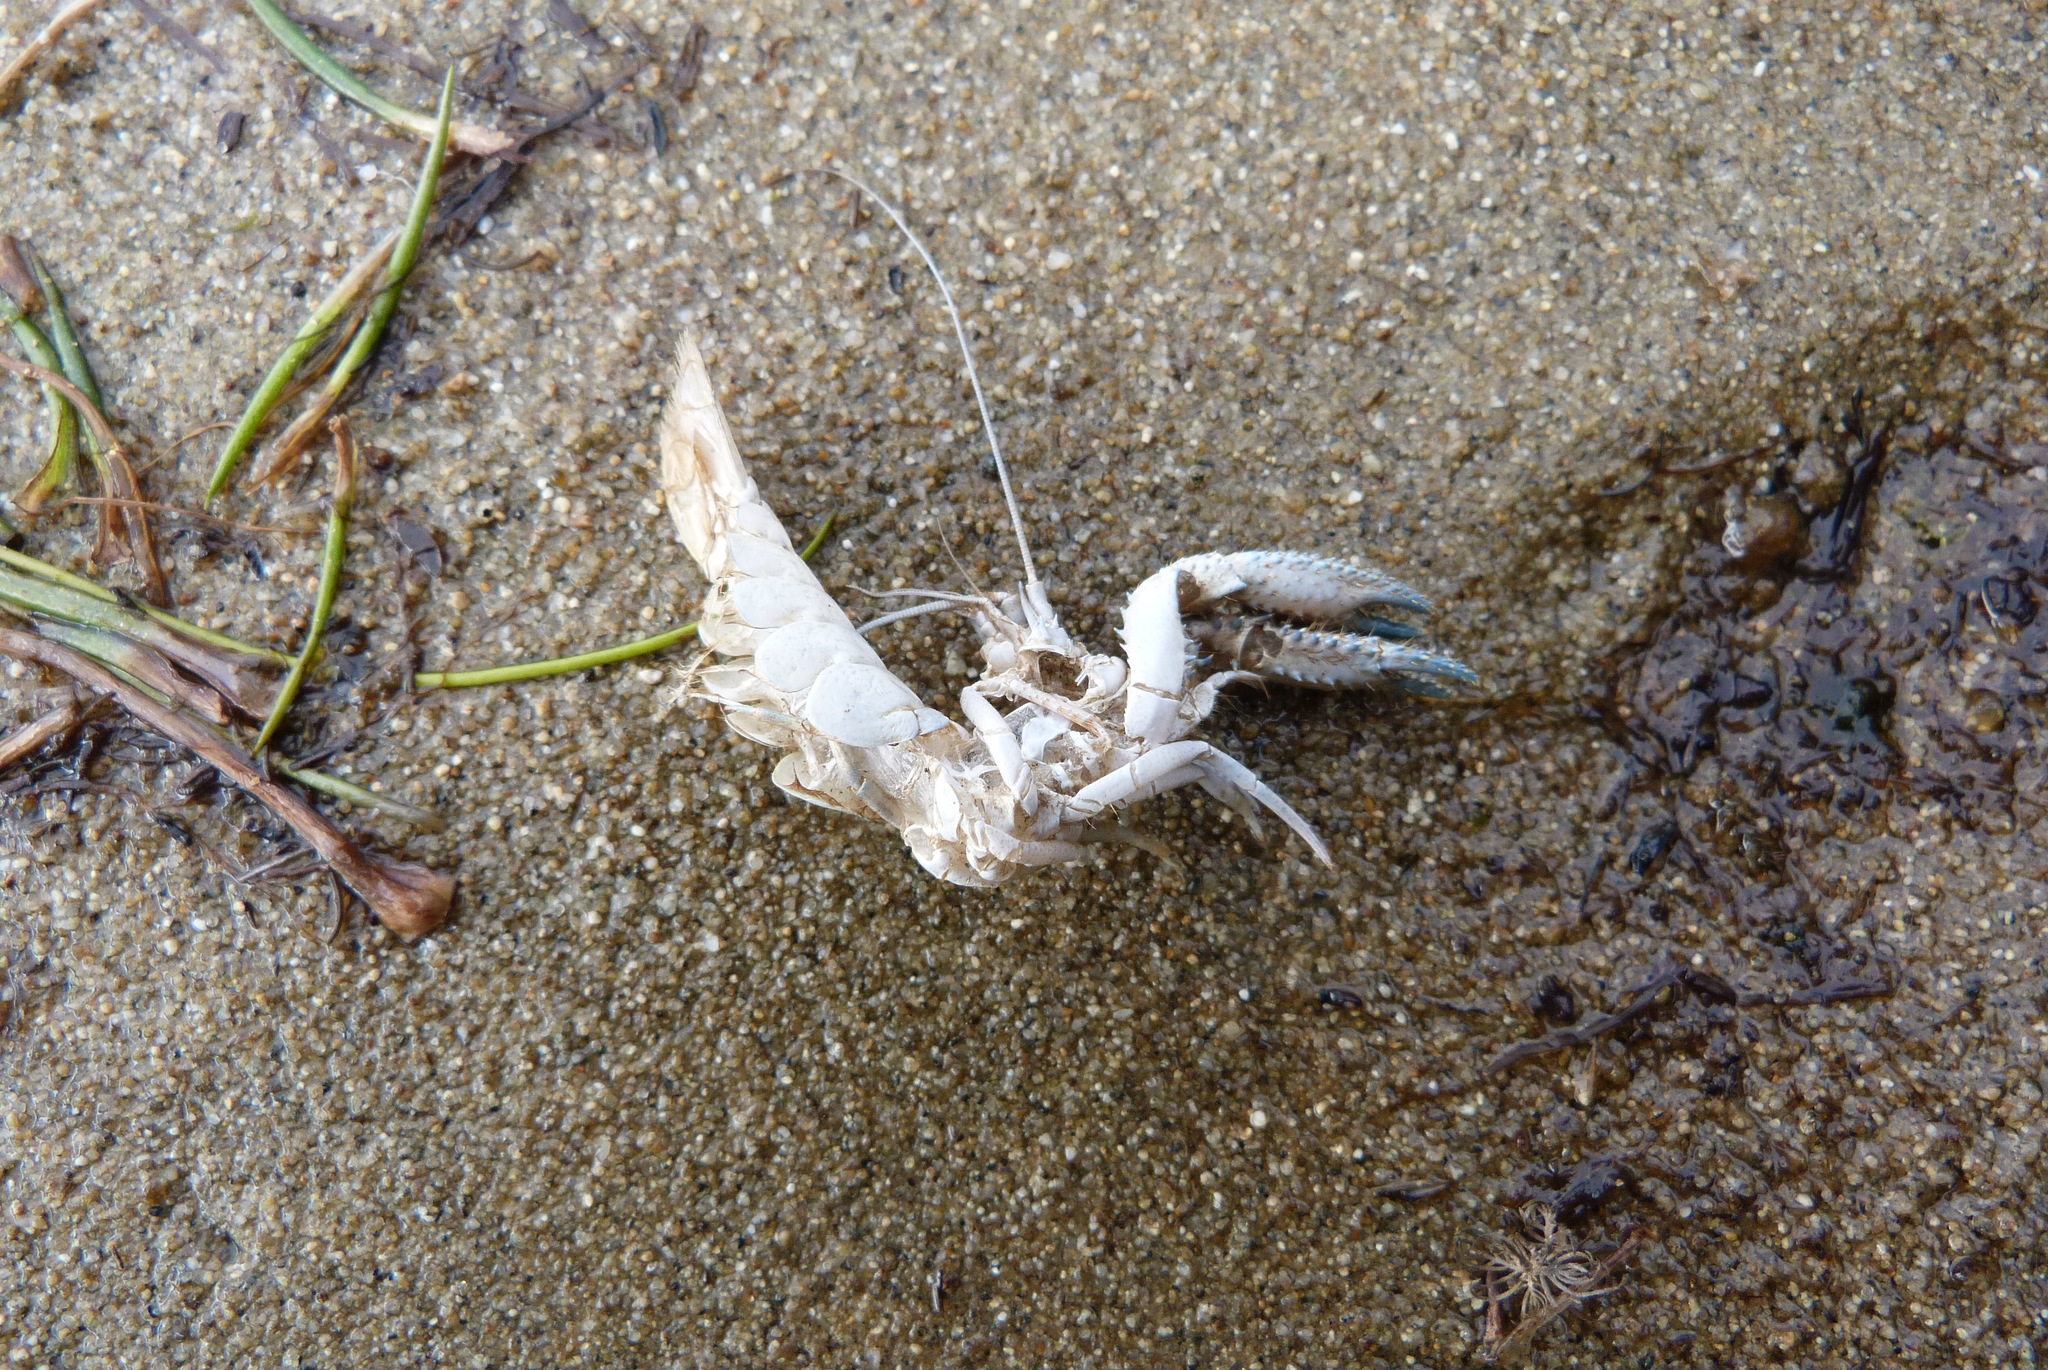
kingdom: Animalia
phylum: Arthropoda
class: Malacostraca
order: Decapoda
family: Parastacidae
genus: Paranephrops
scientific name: Paranephrops planifrons
